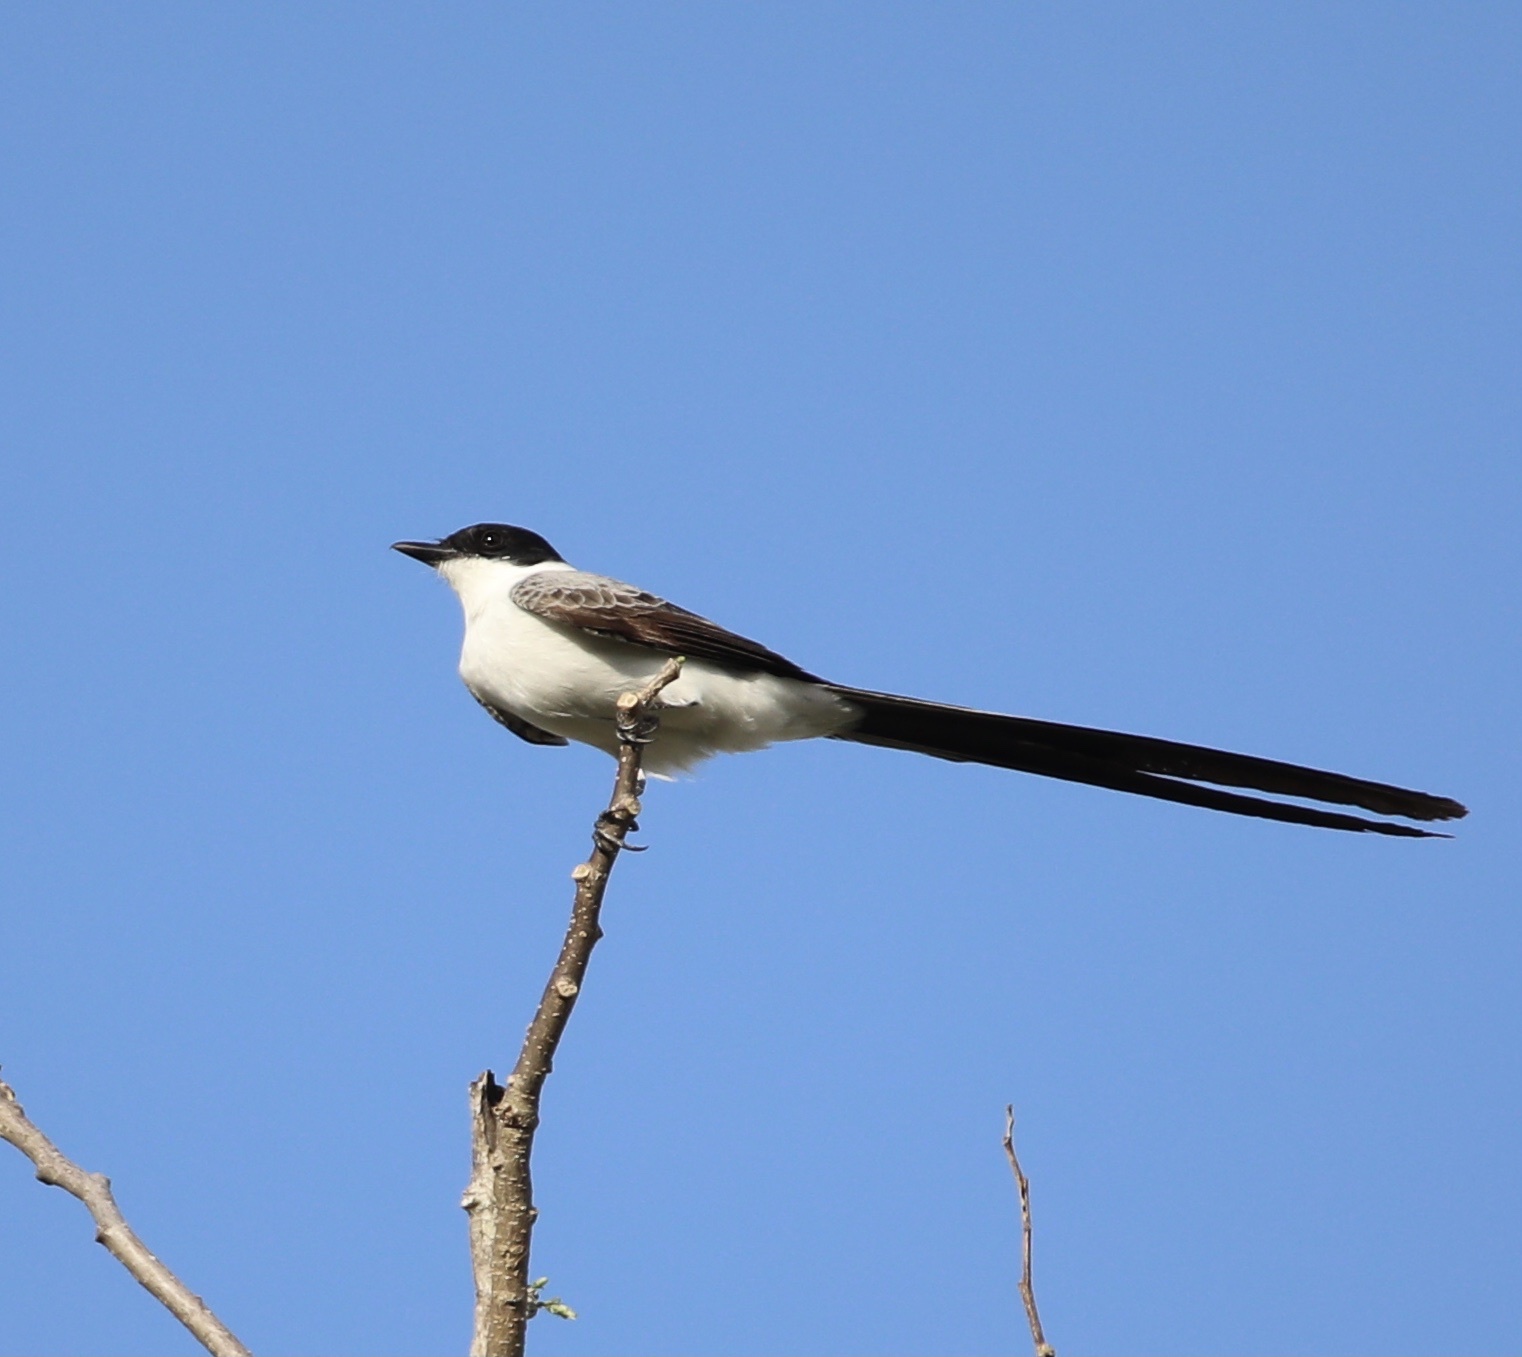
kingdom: Animalia
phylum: Chordata
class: Aves
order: Passeriformes
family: Tyrannidae
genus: Tyrannus
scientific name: Tyrannus savana
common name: Fork-tailed flycatcher
